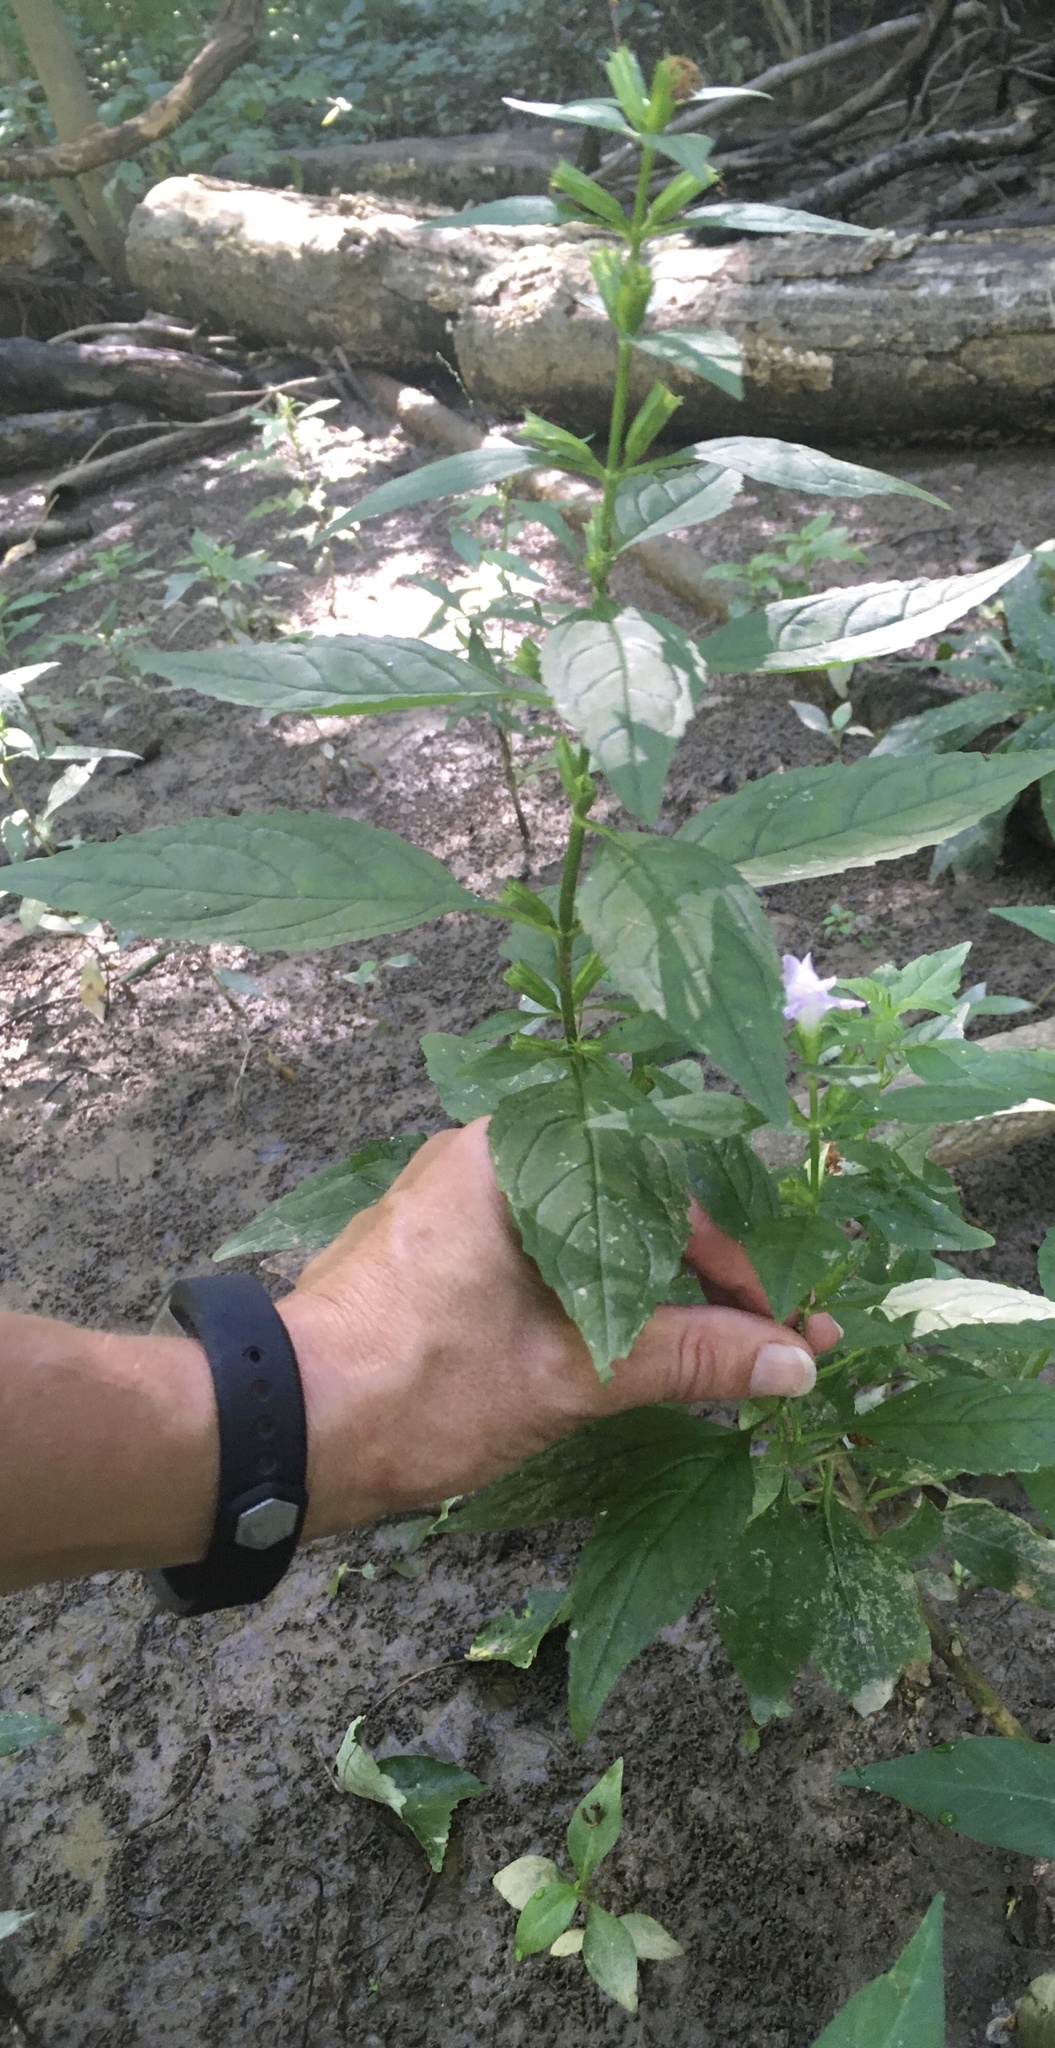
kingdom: Plantae
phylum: Tracheophyta
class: Magnoliopsida
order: Lamiales
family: Phrymaceae
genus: Mimulus
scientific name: Mimulus alatus
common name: Sharp-wing monkey-flower
